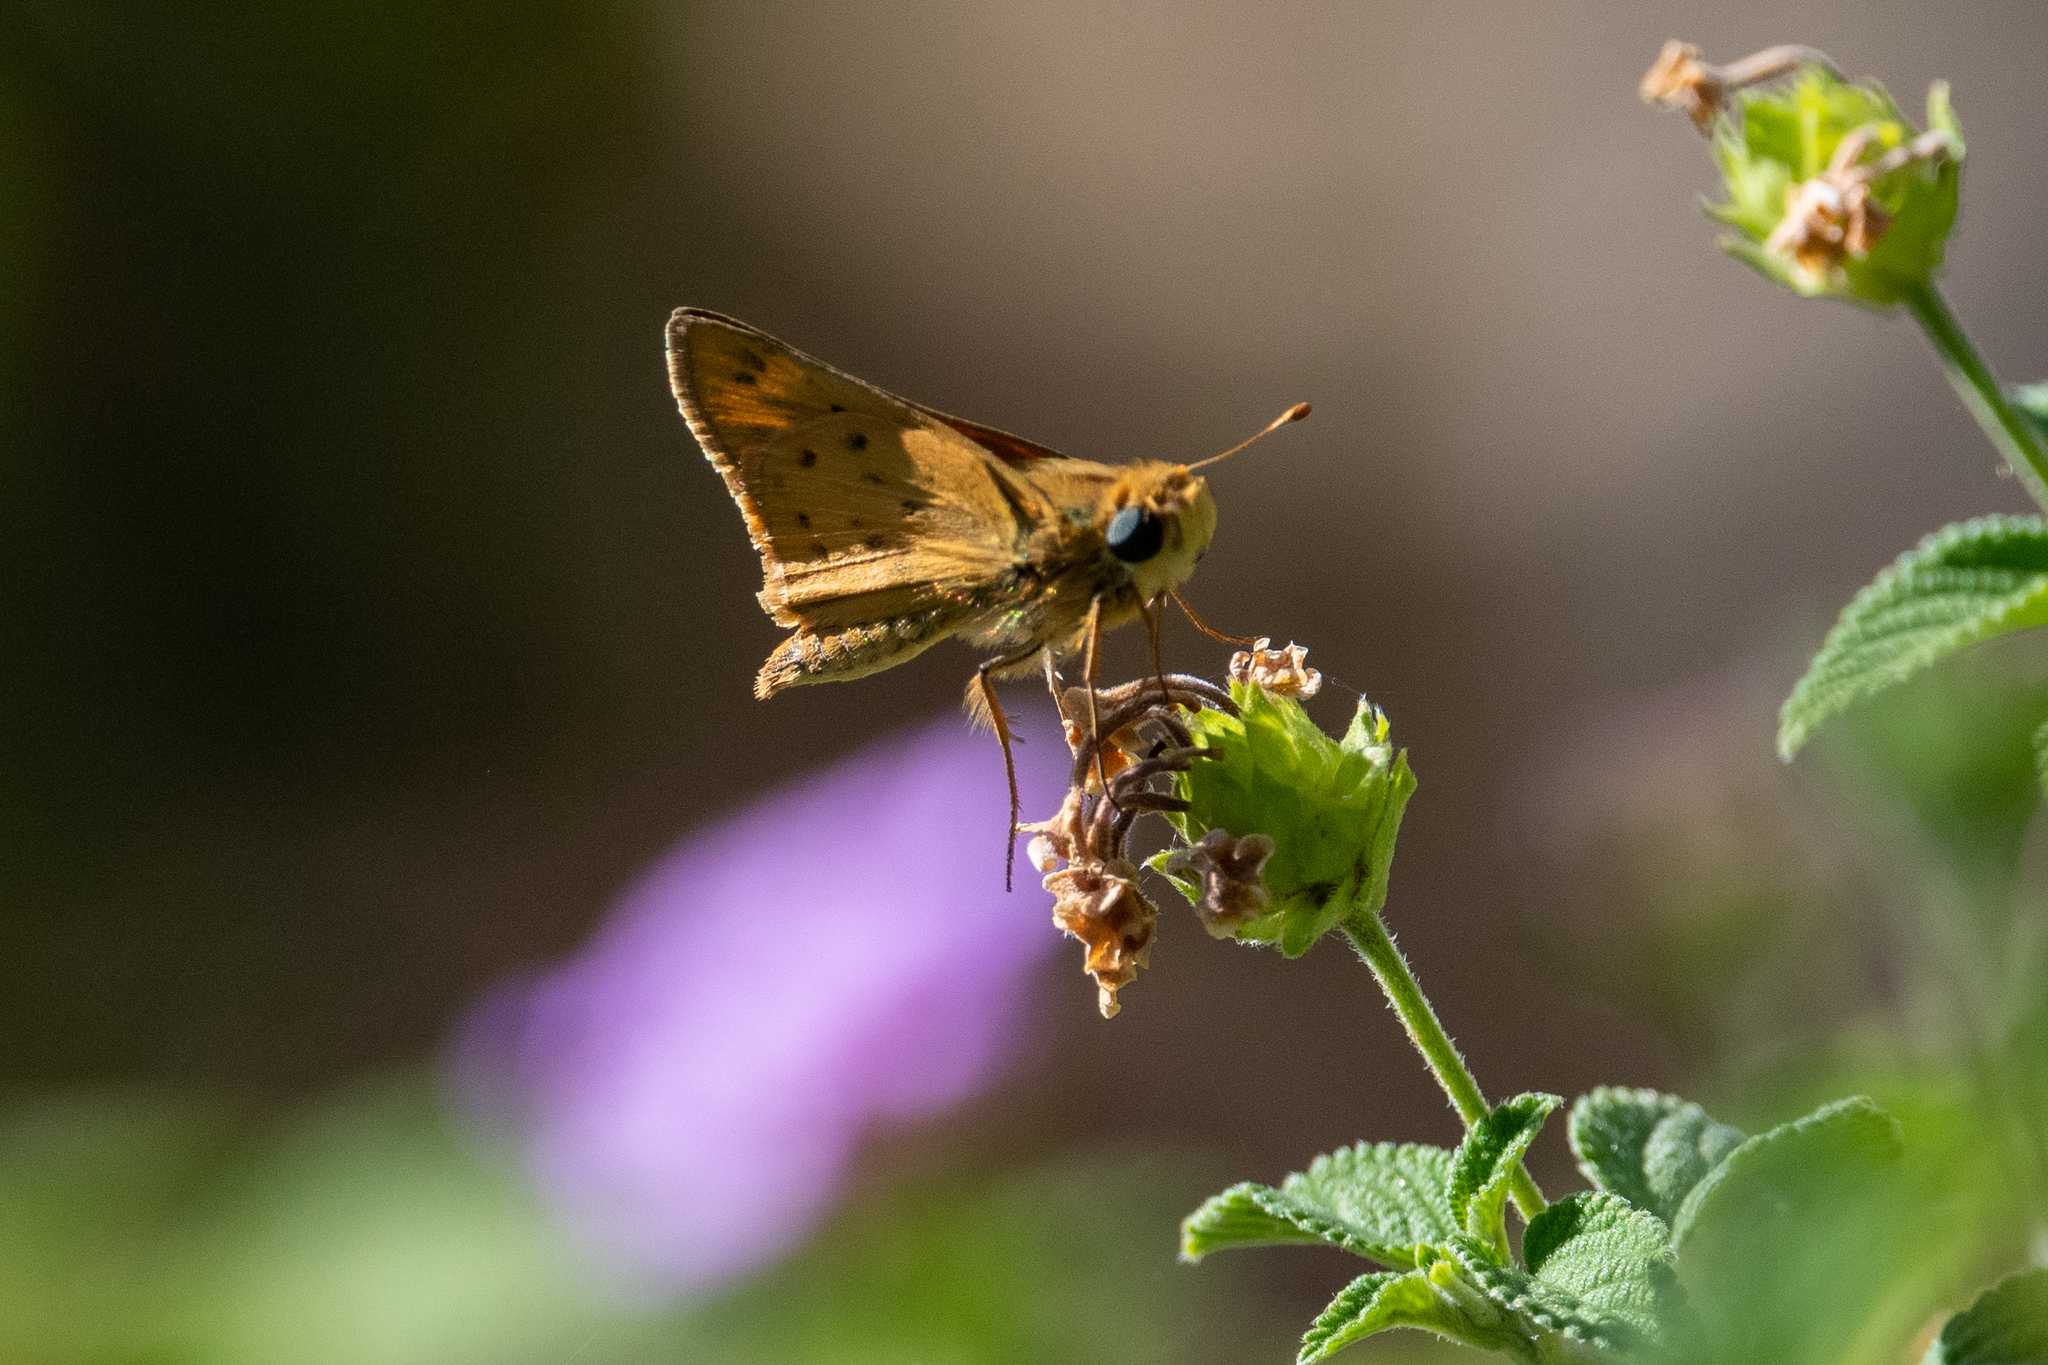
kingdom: Animalia
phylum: Arthropoda
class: Insecta
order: Lepidoptera
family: Hesperiidae
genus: Hylephila
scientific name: Hylephila phyleus
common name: Fiery skipper
